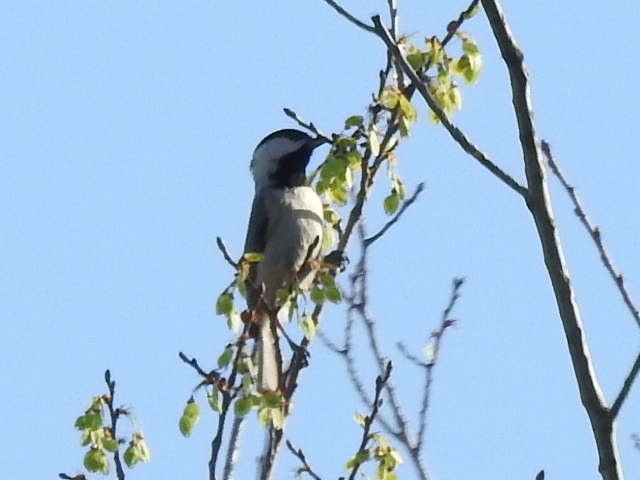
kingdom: Animalia
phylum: Chordata
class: Aves
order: Passeriformes
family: Paridae
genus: Poecile
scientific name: Poecile carolinensis
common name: Carolina chickadee
